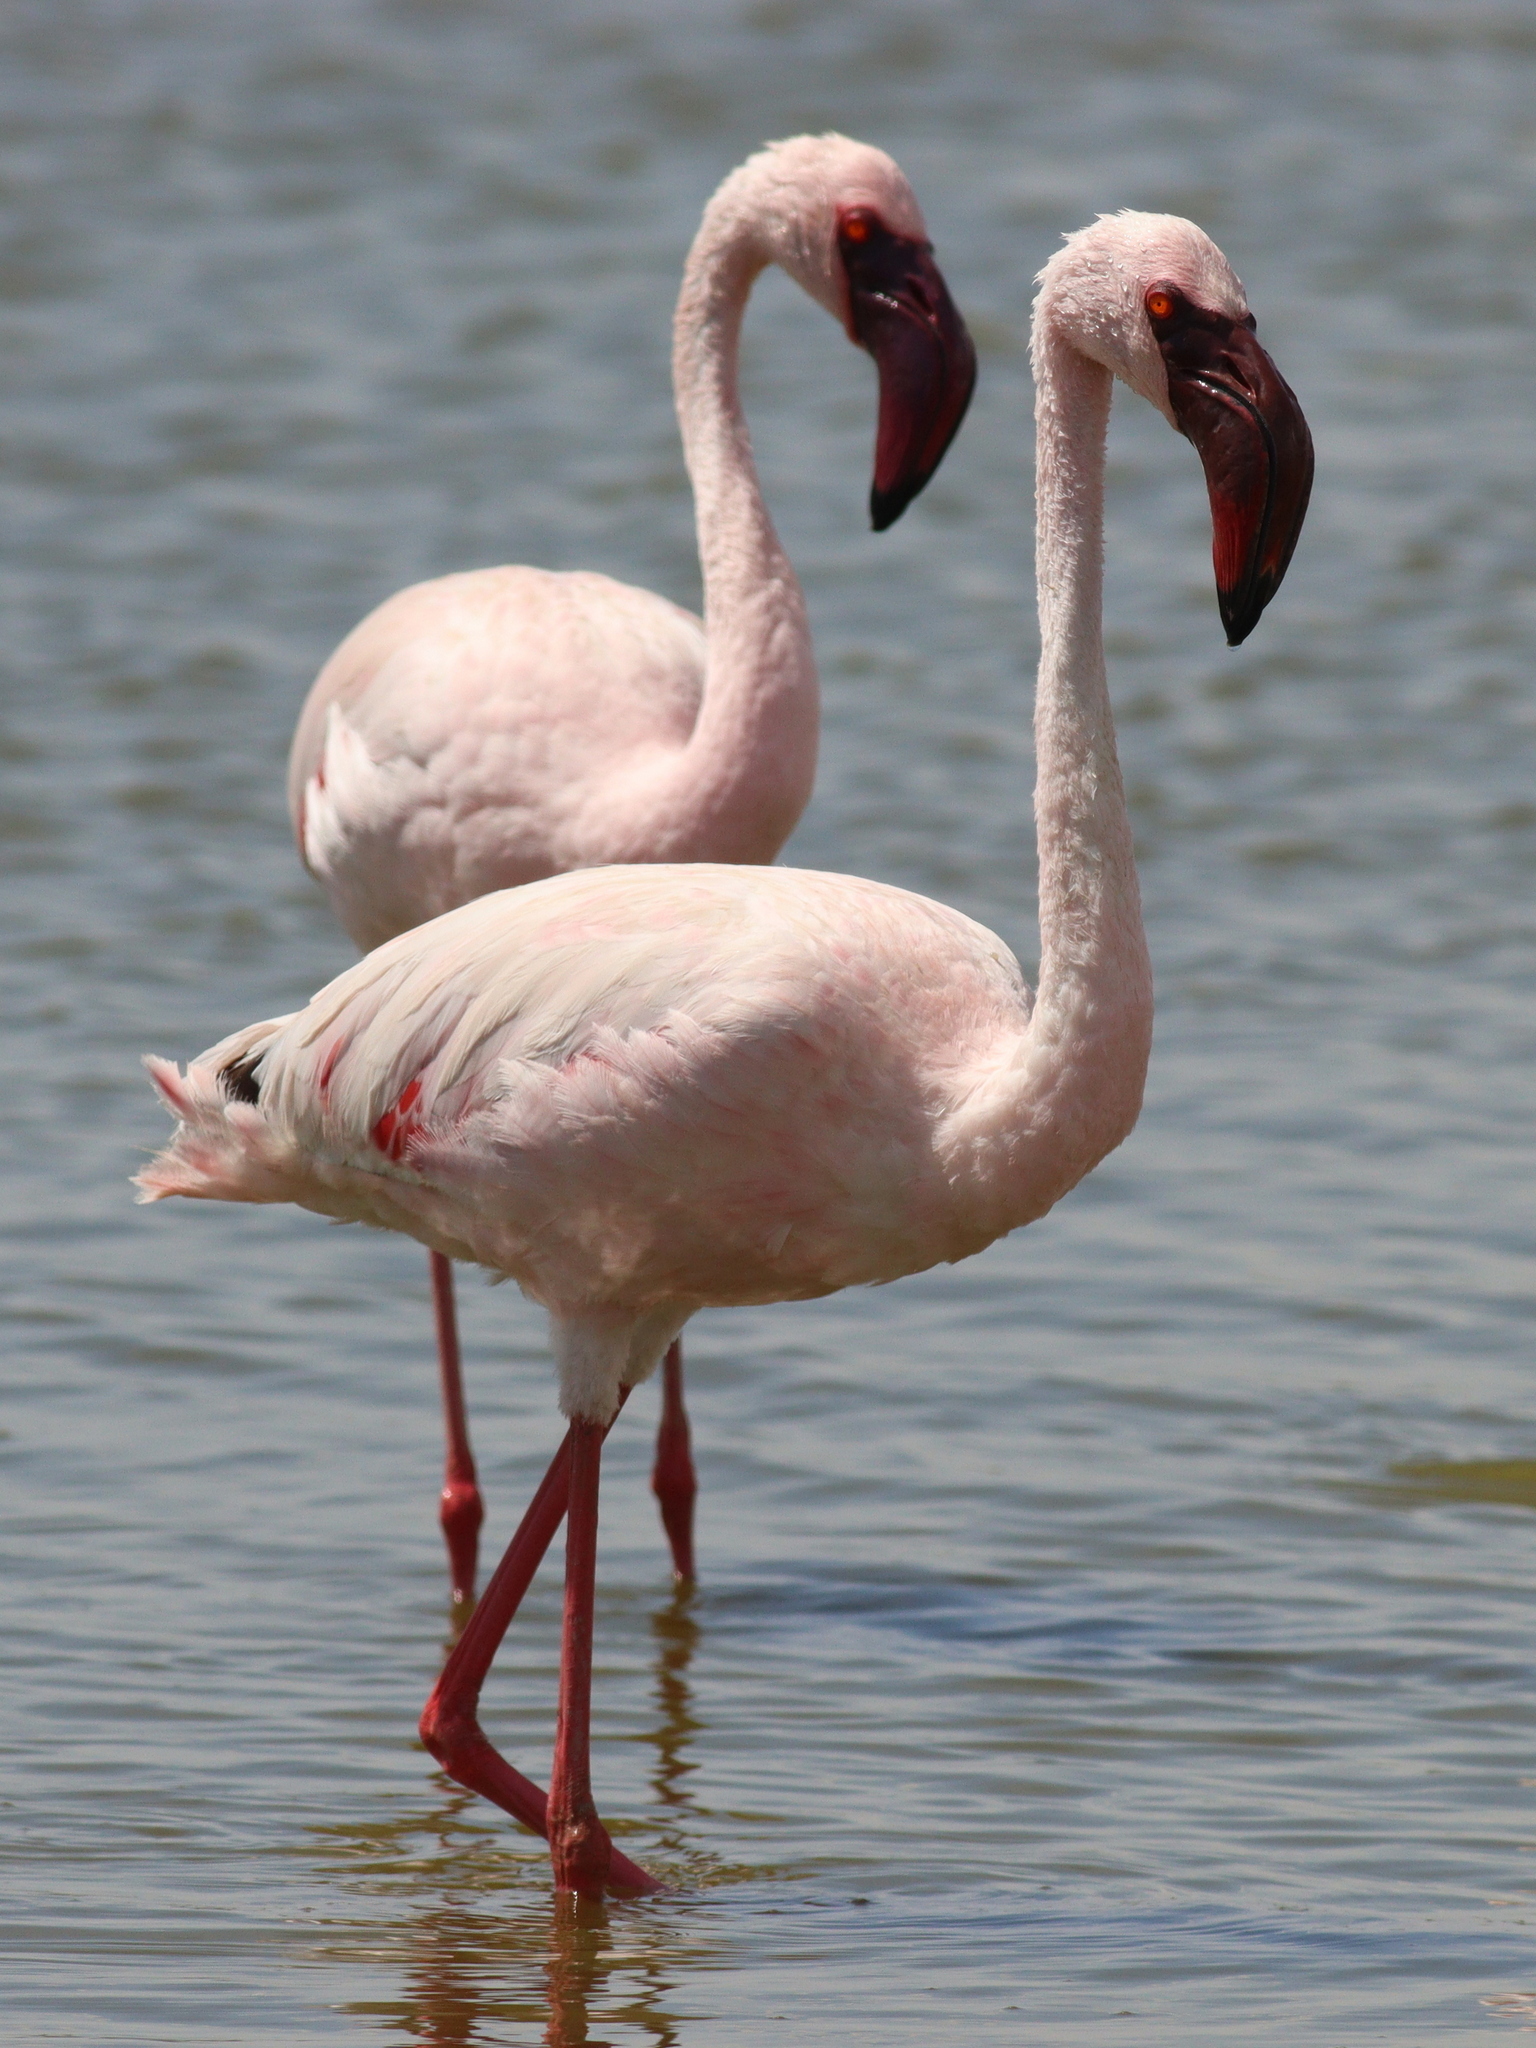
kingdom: Animalia
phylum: Chordata
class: Aves
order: Phoenicopteriformes
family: Phoenicopteridae
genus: Phoeniconaias
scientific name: Phoeniconaias minor
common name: Lesser flamingo
